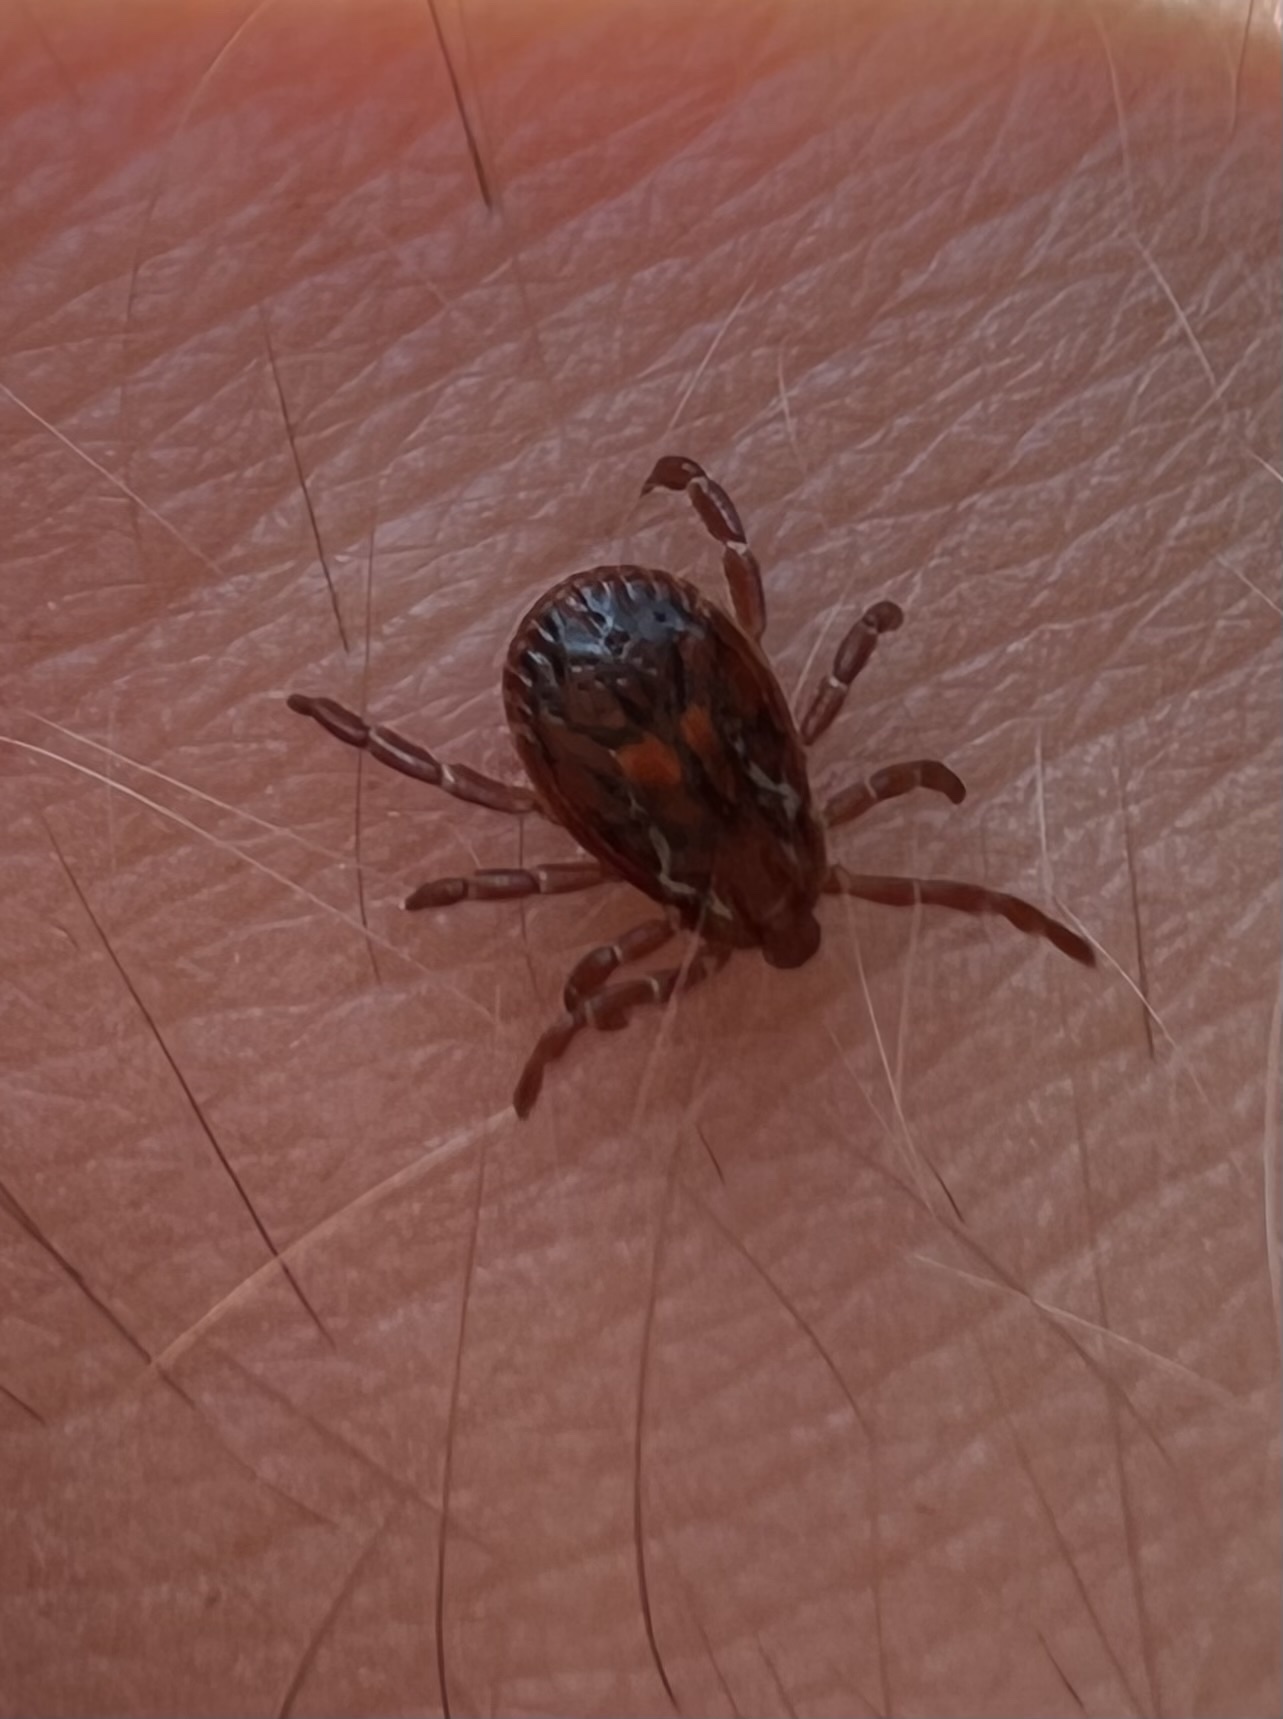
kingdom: Animalia
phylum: Arthropoda
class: Arachnida
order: Ixodida
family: Ixodidae
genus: Dermacentor
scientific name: Dermacentor variabilis
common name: American dog tick
